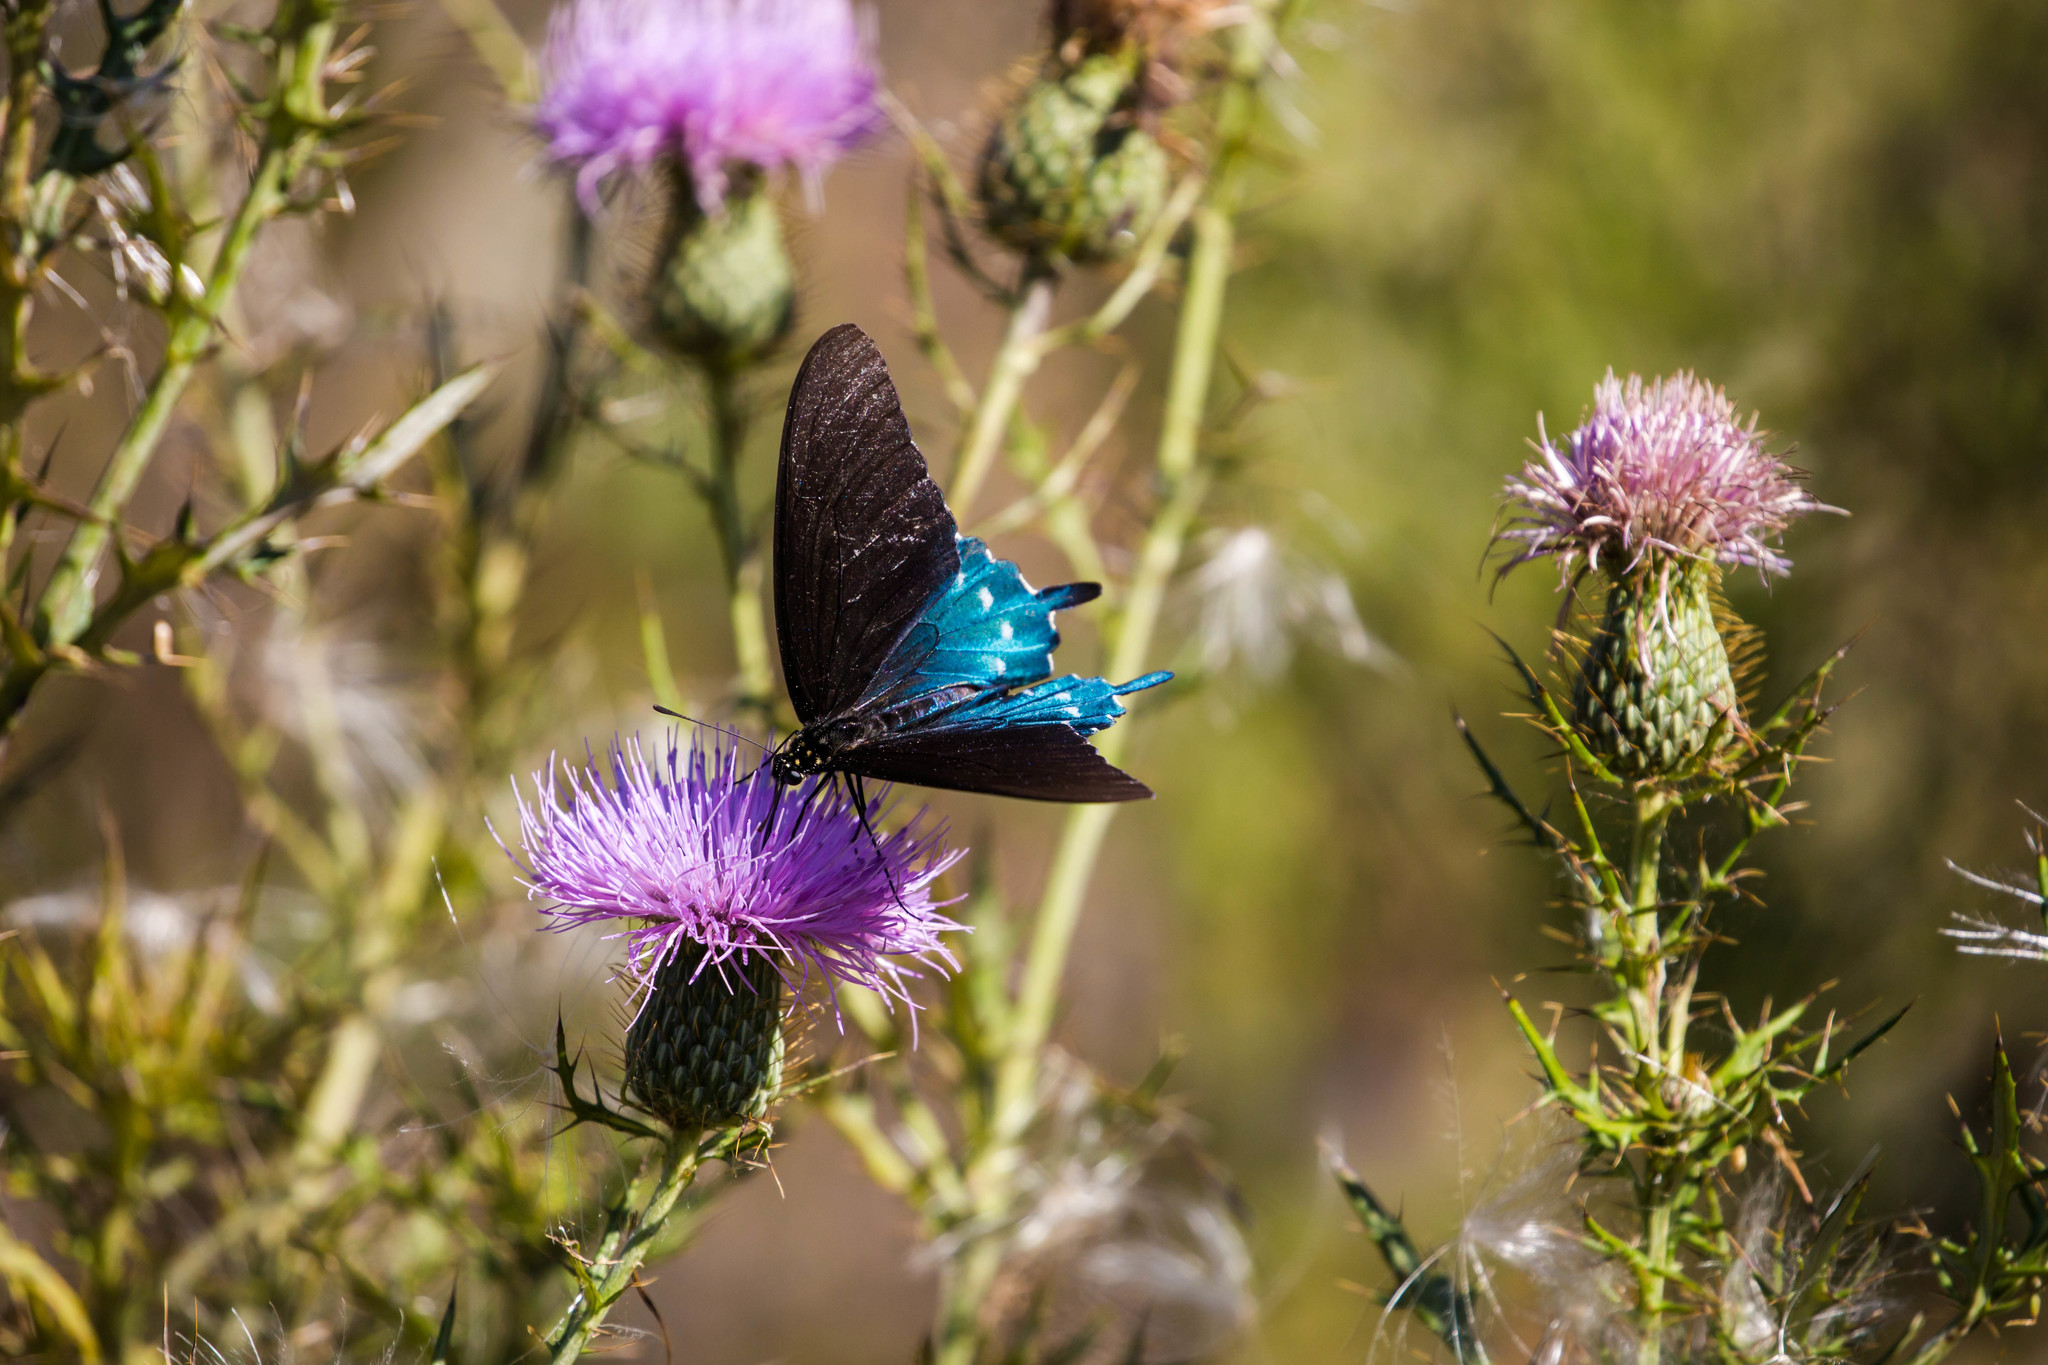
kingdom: Animalia
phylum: Arthropoda
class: Insecta
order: Lepidoptera
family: Papilionidae
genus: Battus
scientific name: Battus philenor
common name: Pipevine swallowtail
